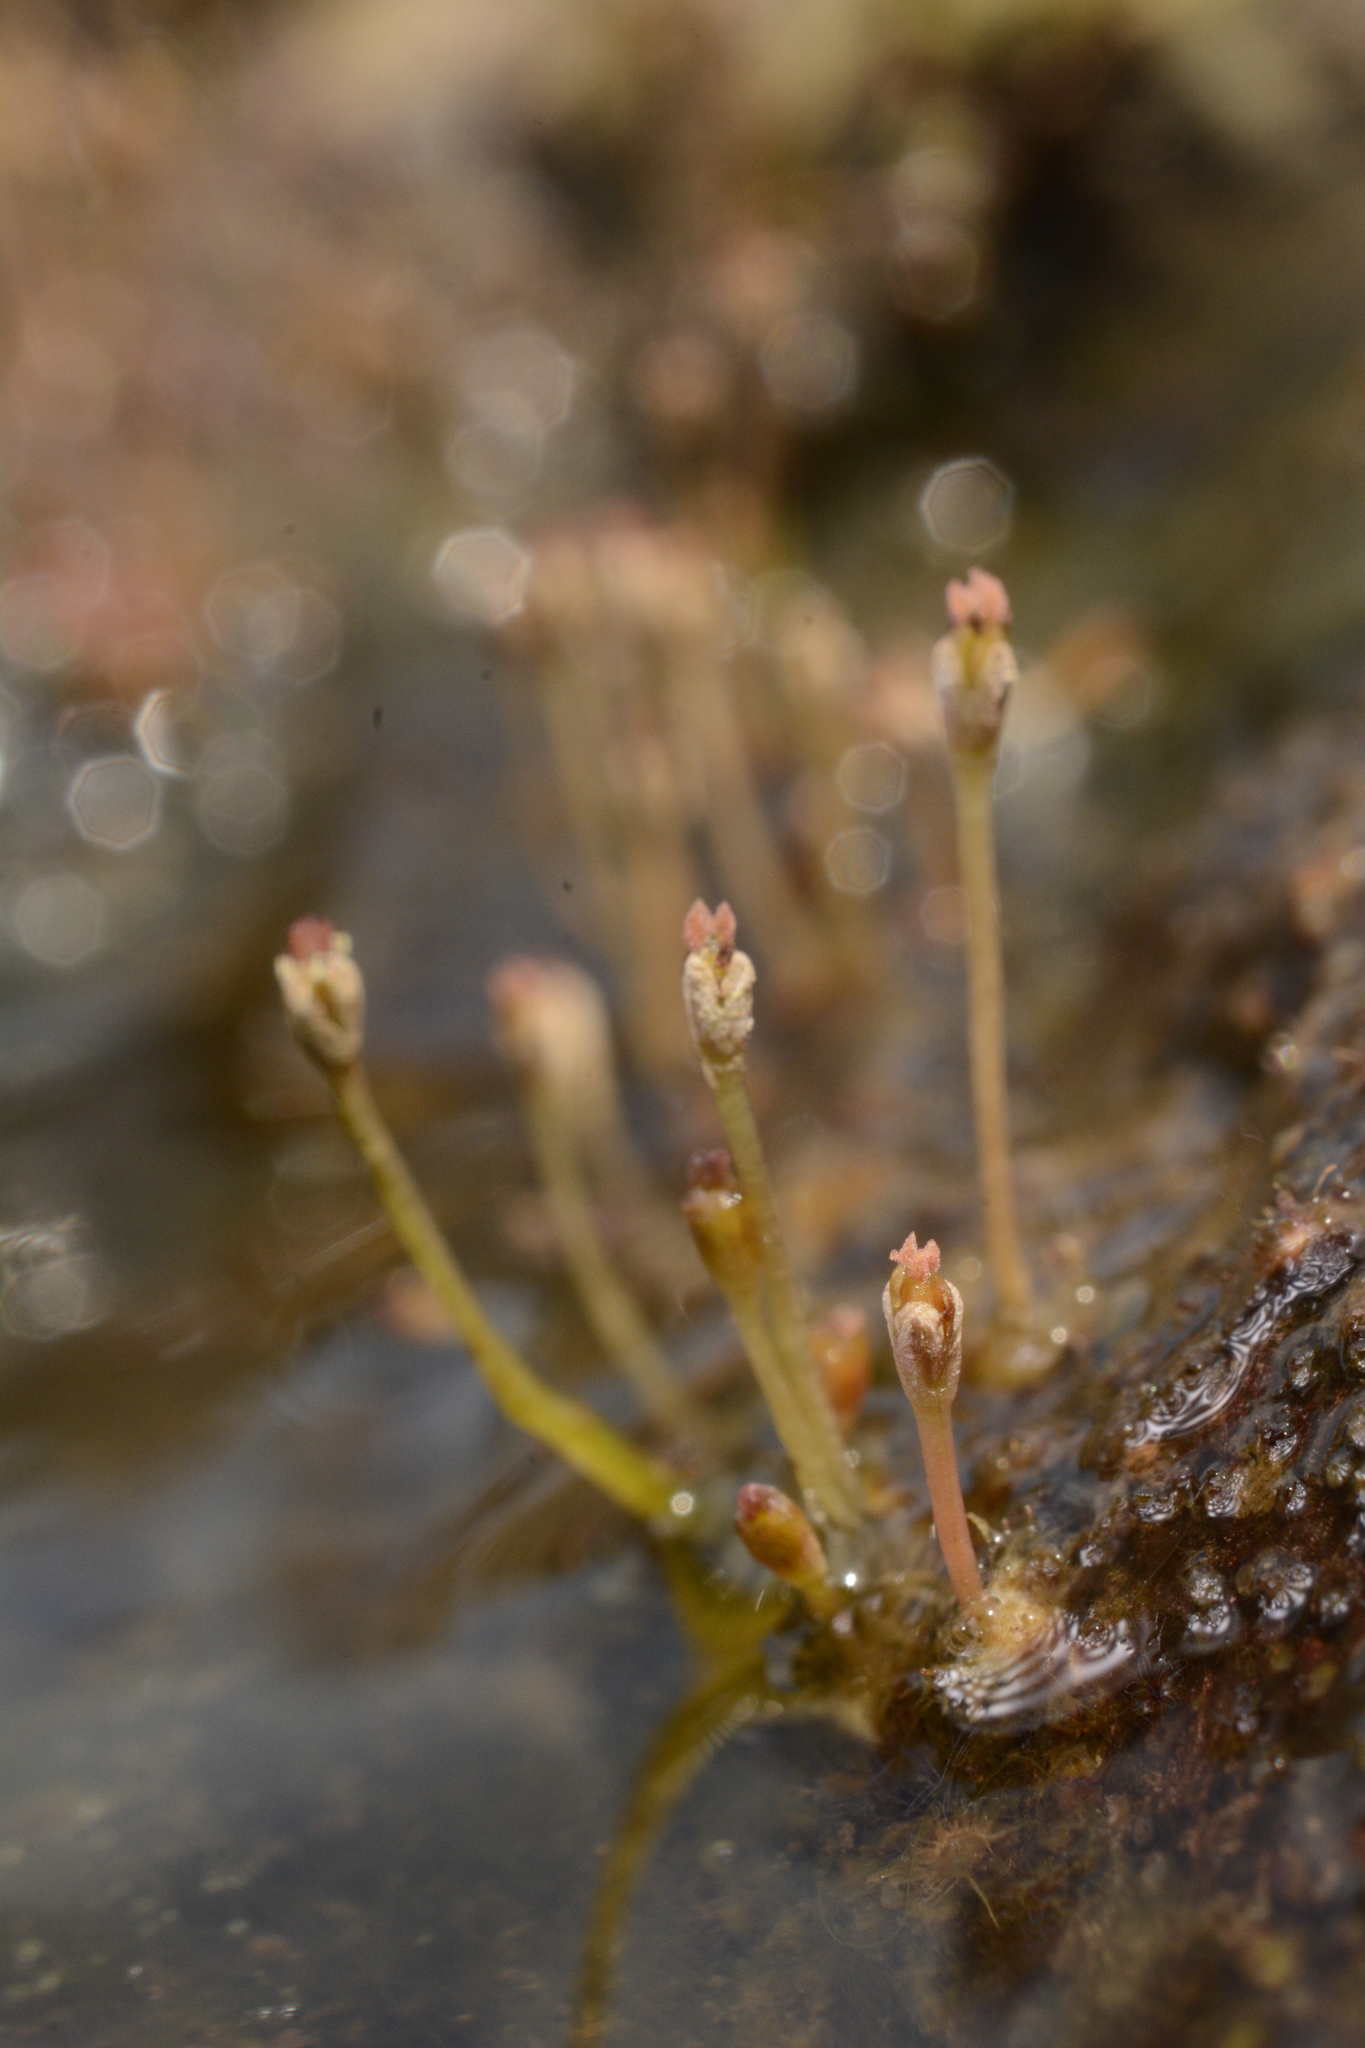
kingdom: Plantae
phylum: Tracheophyta
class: Magnoliopsida
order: Malpighiales
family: Podostemaceae
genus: Dalzellia
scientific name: Dalzellia ceylanica
